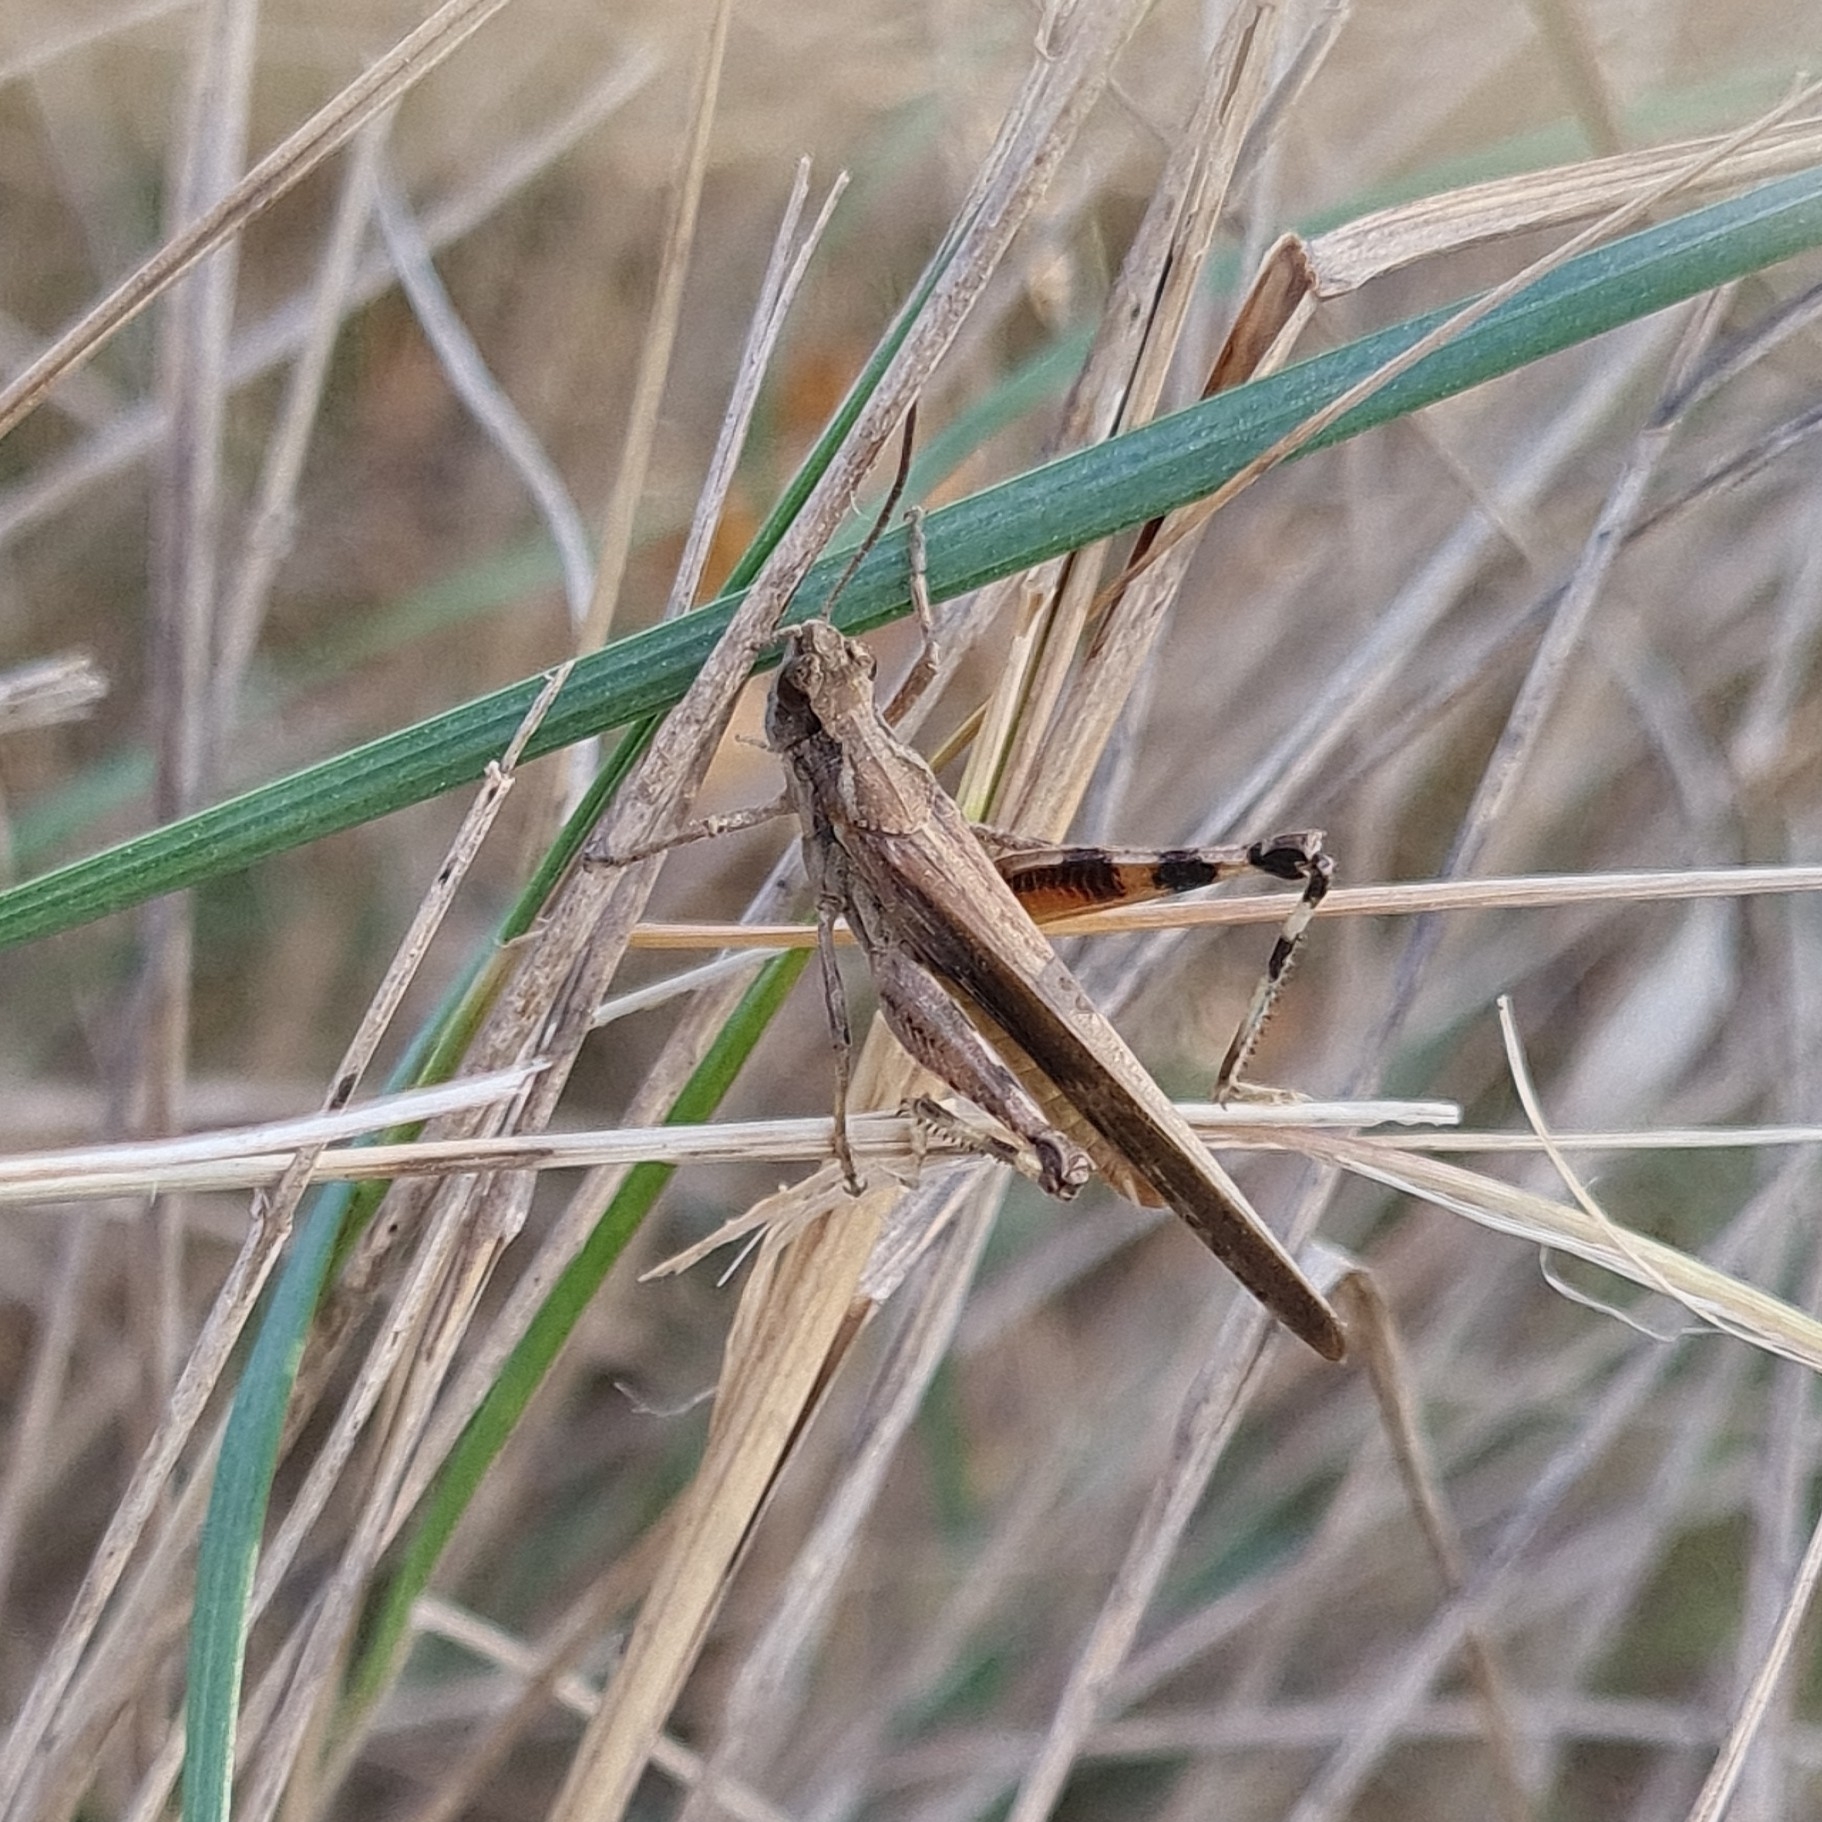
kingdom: Animalia
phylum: Arthropoda
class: Insecta
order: Orthoptera
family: Acrididae
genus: Aiolopus
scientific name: Aiolopus puissanti
